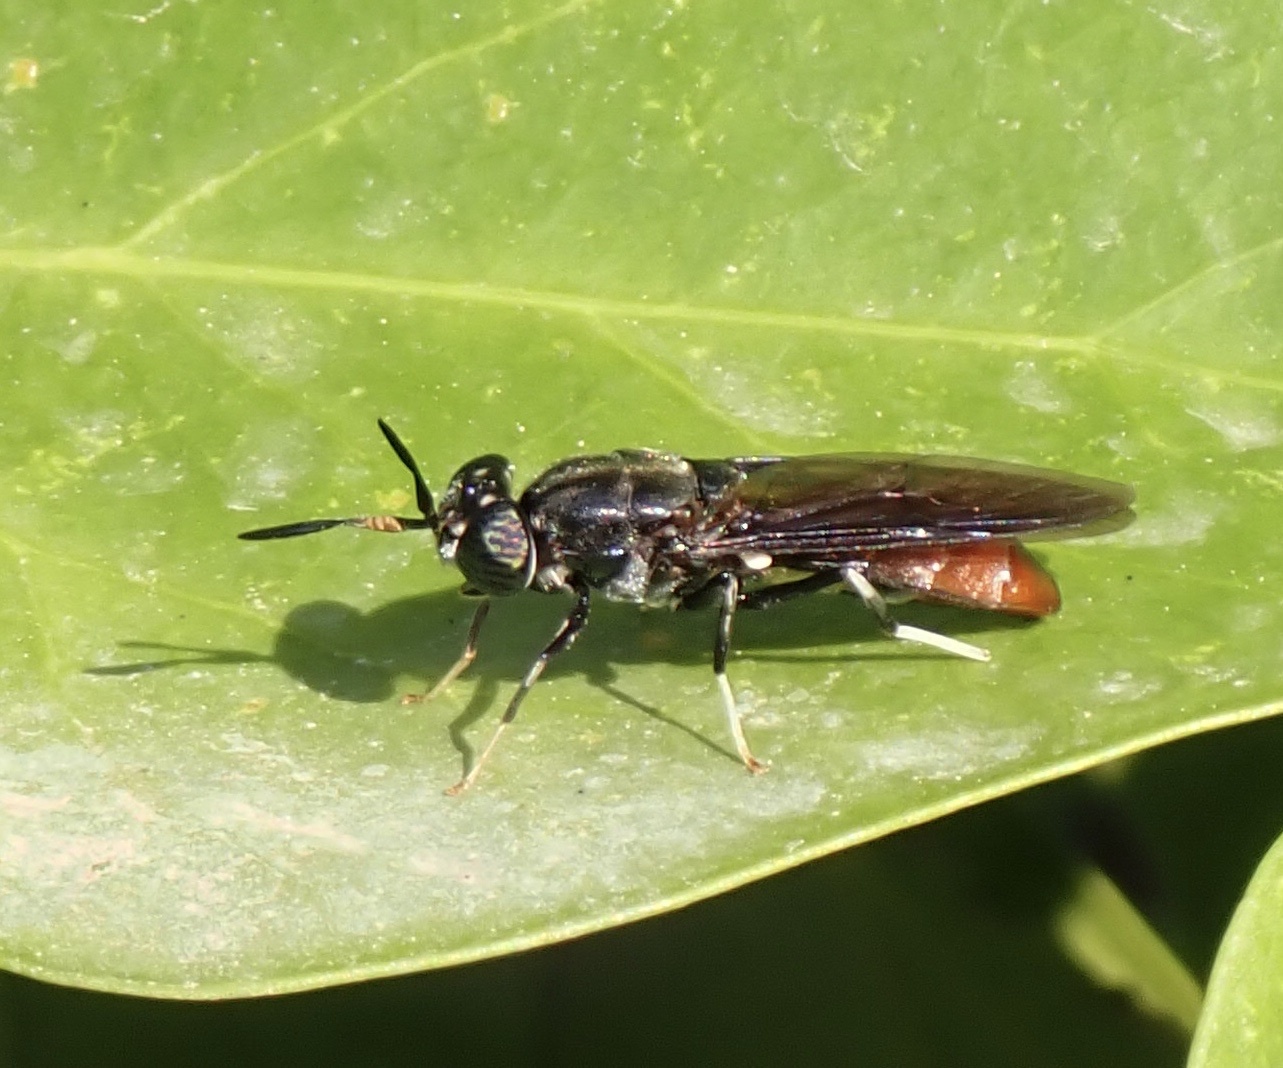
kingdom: Animalia
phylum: Arthropoda
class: Insecta
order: Diptera
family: Stratiomyidae
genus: Hermetia
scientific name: Hermetia illucens
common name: Black soldier fly
